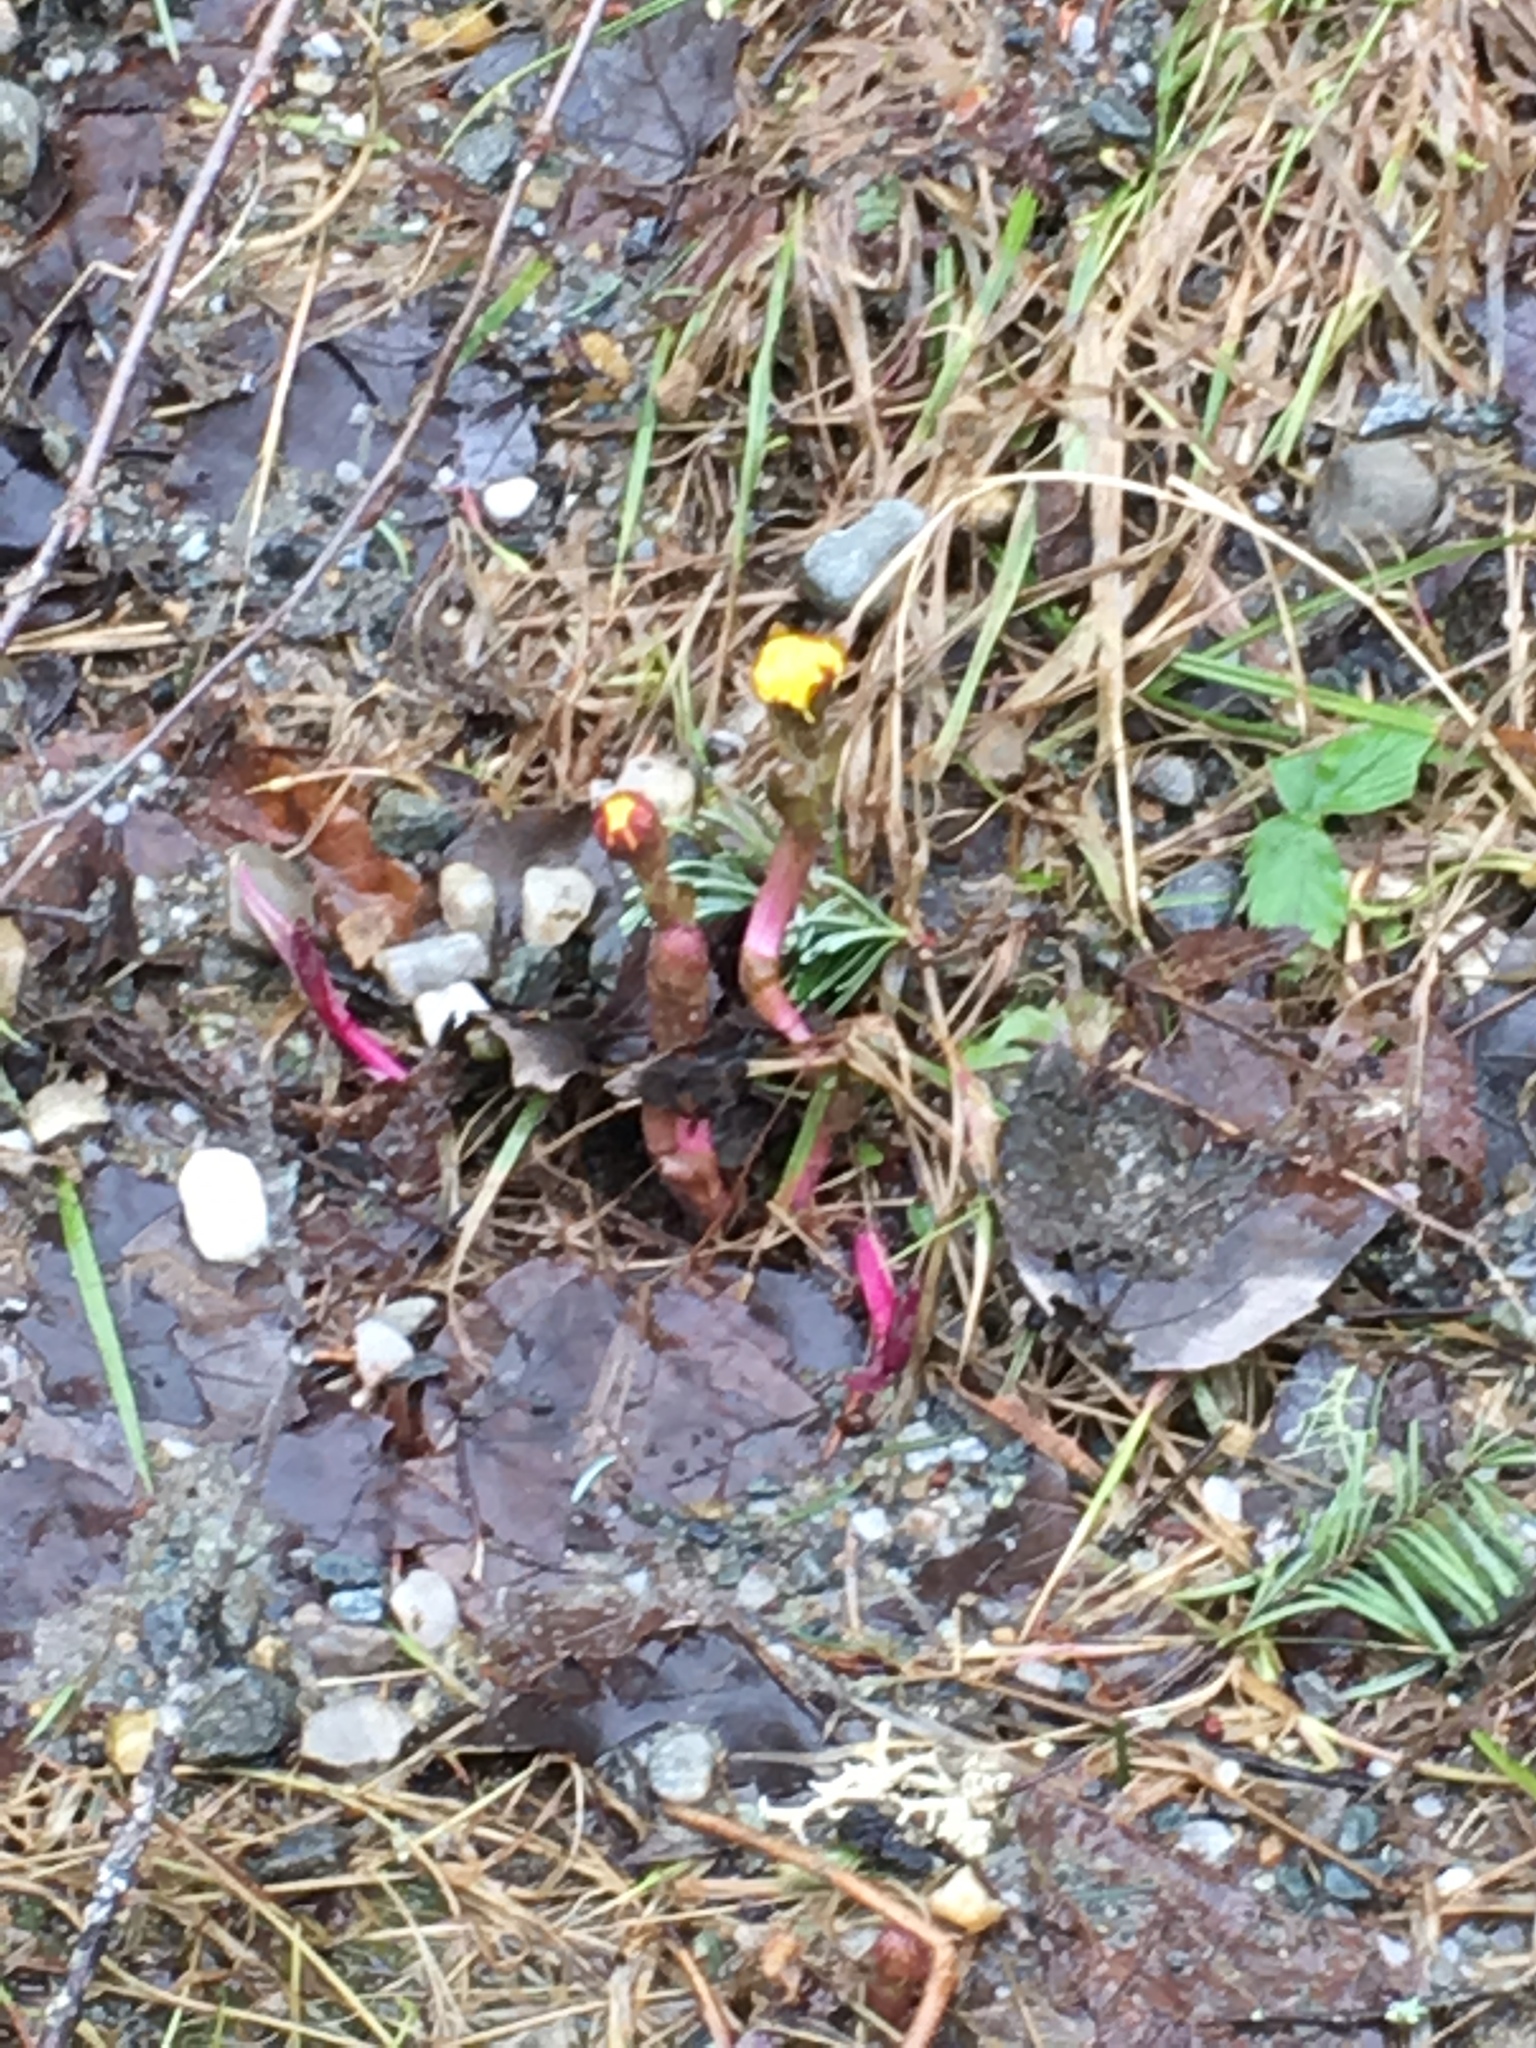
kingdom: Plantae
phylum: Tracheophyta
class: Magnoliopsida
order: Asterales
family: Asteraceae
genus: Tussilago
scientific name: Tussilago farfara
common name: Coltsfoot
